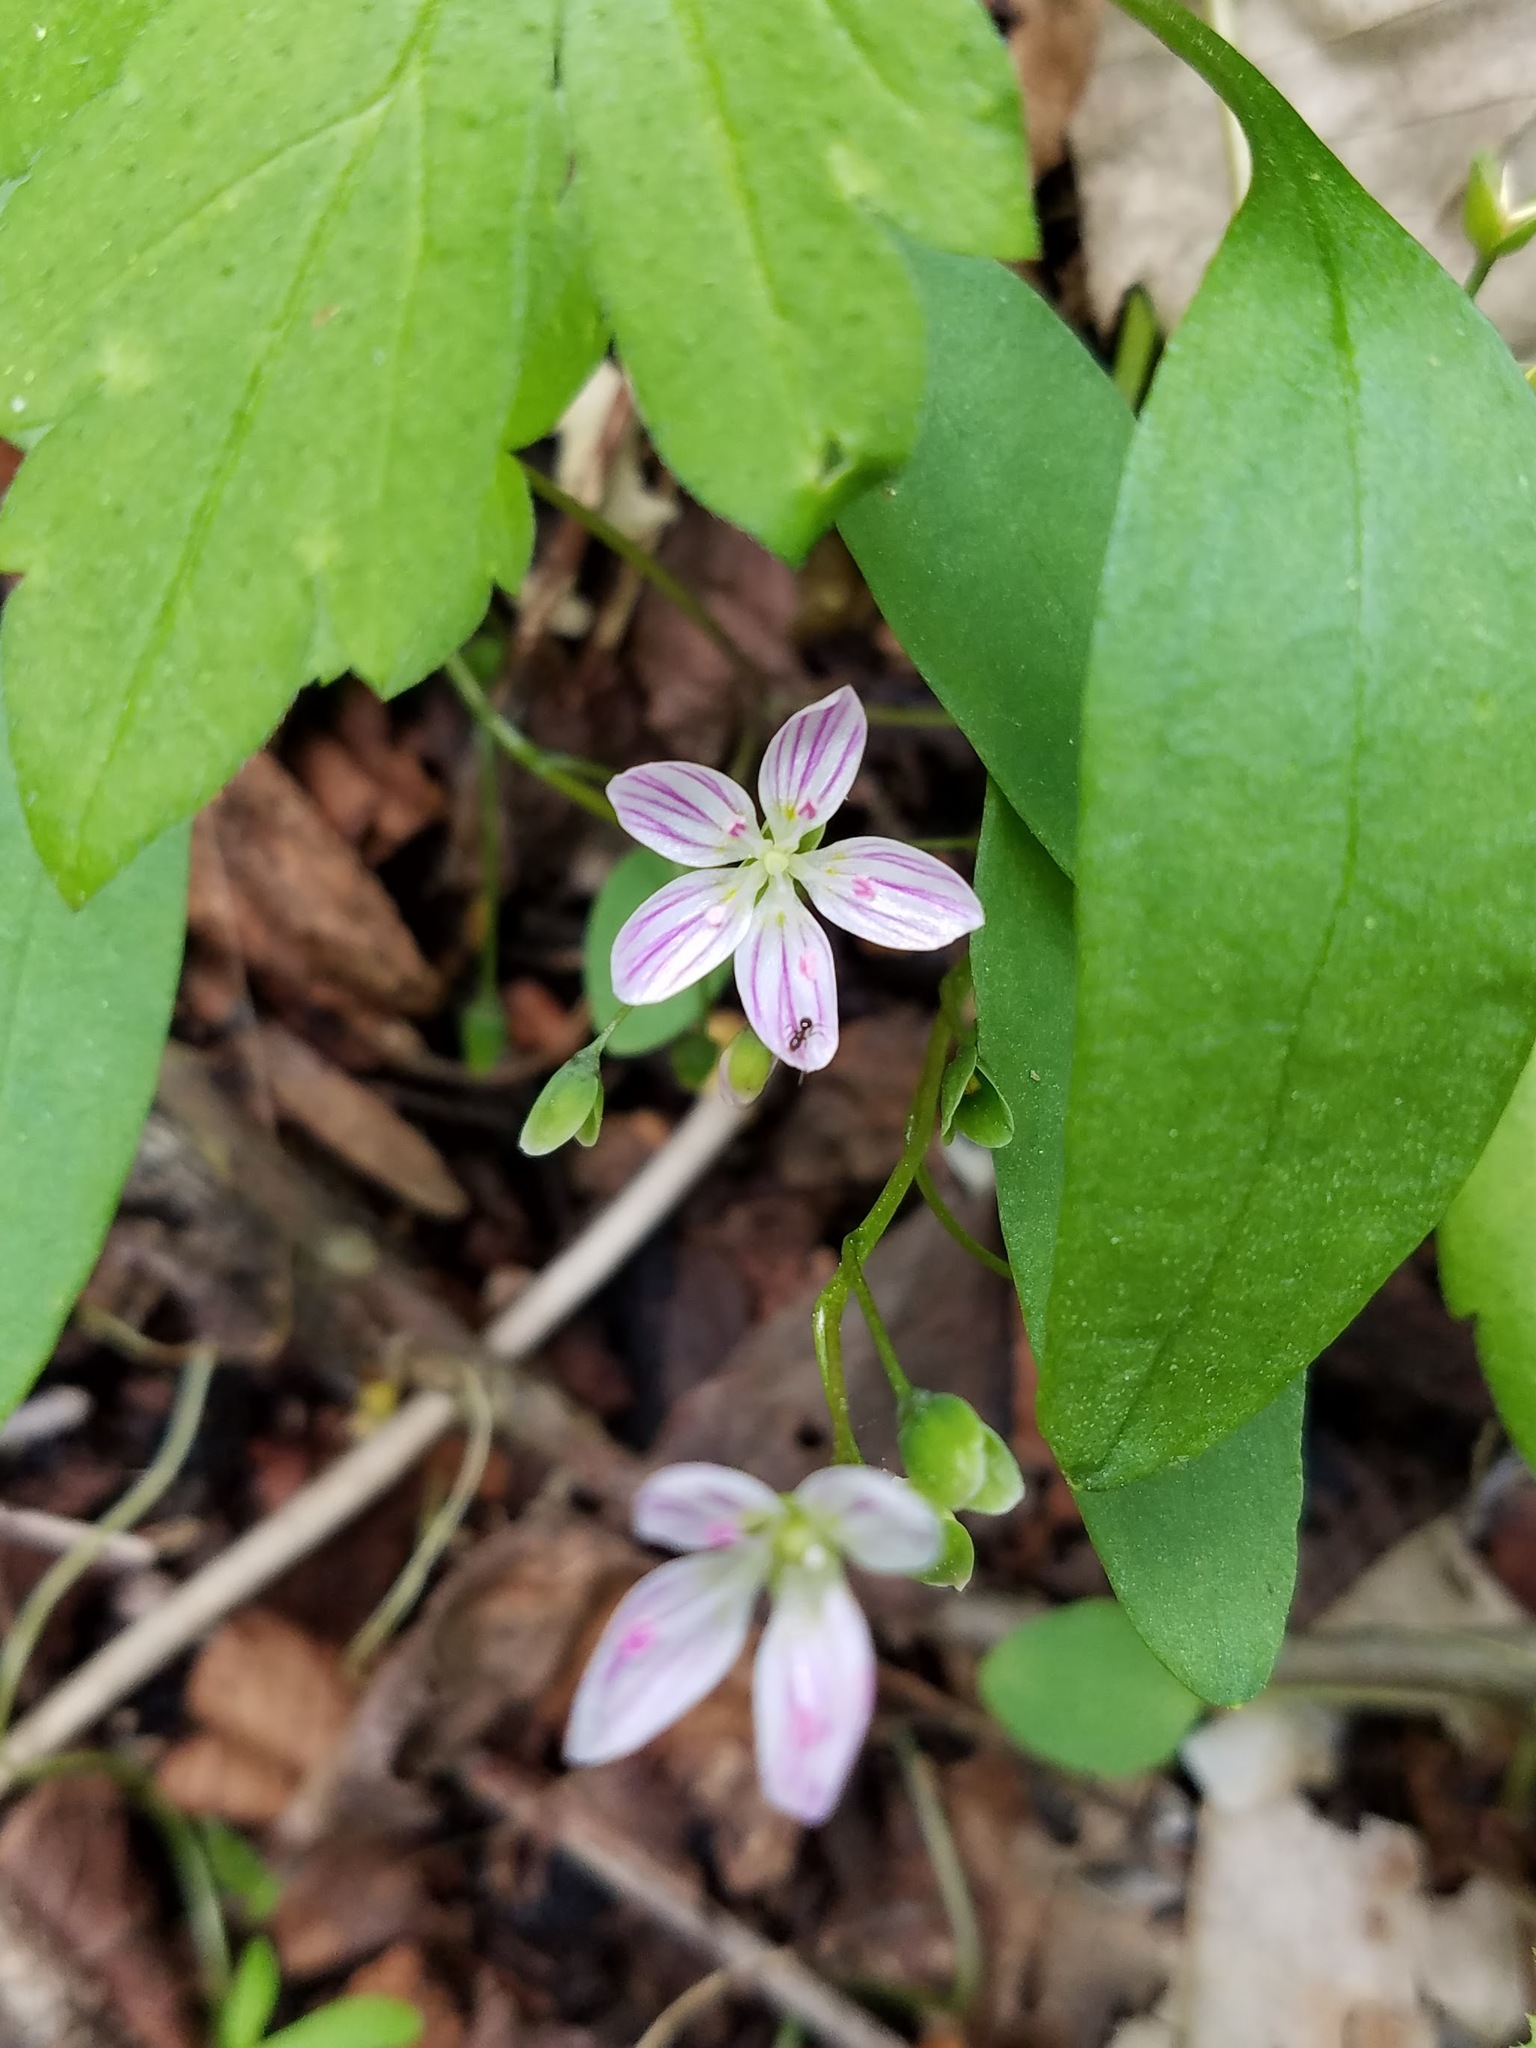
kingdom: Plantae
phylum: Tracheophyta
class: Magnoliopsida
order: Caryophyllales
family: Montiaceae
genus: Claytonia
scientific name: Claytonia caroliniana
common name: Carolina spring beauty
